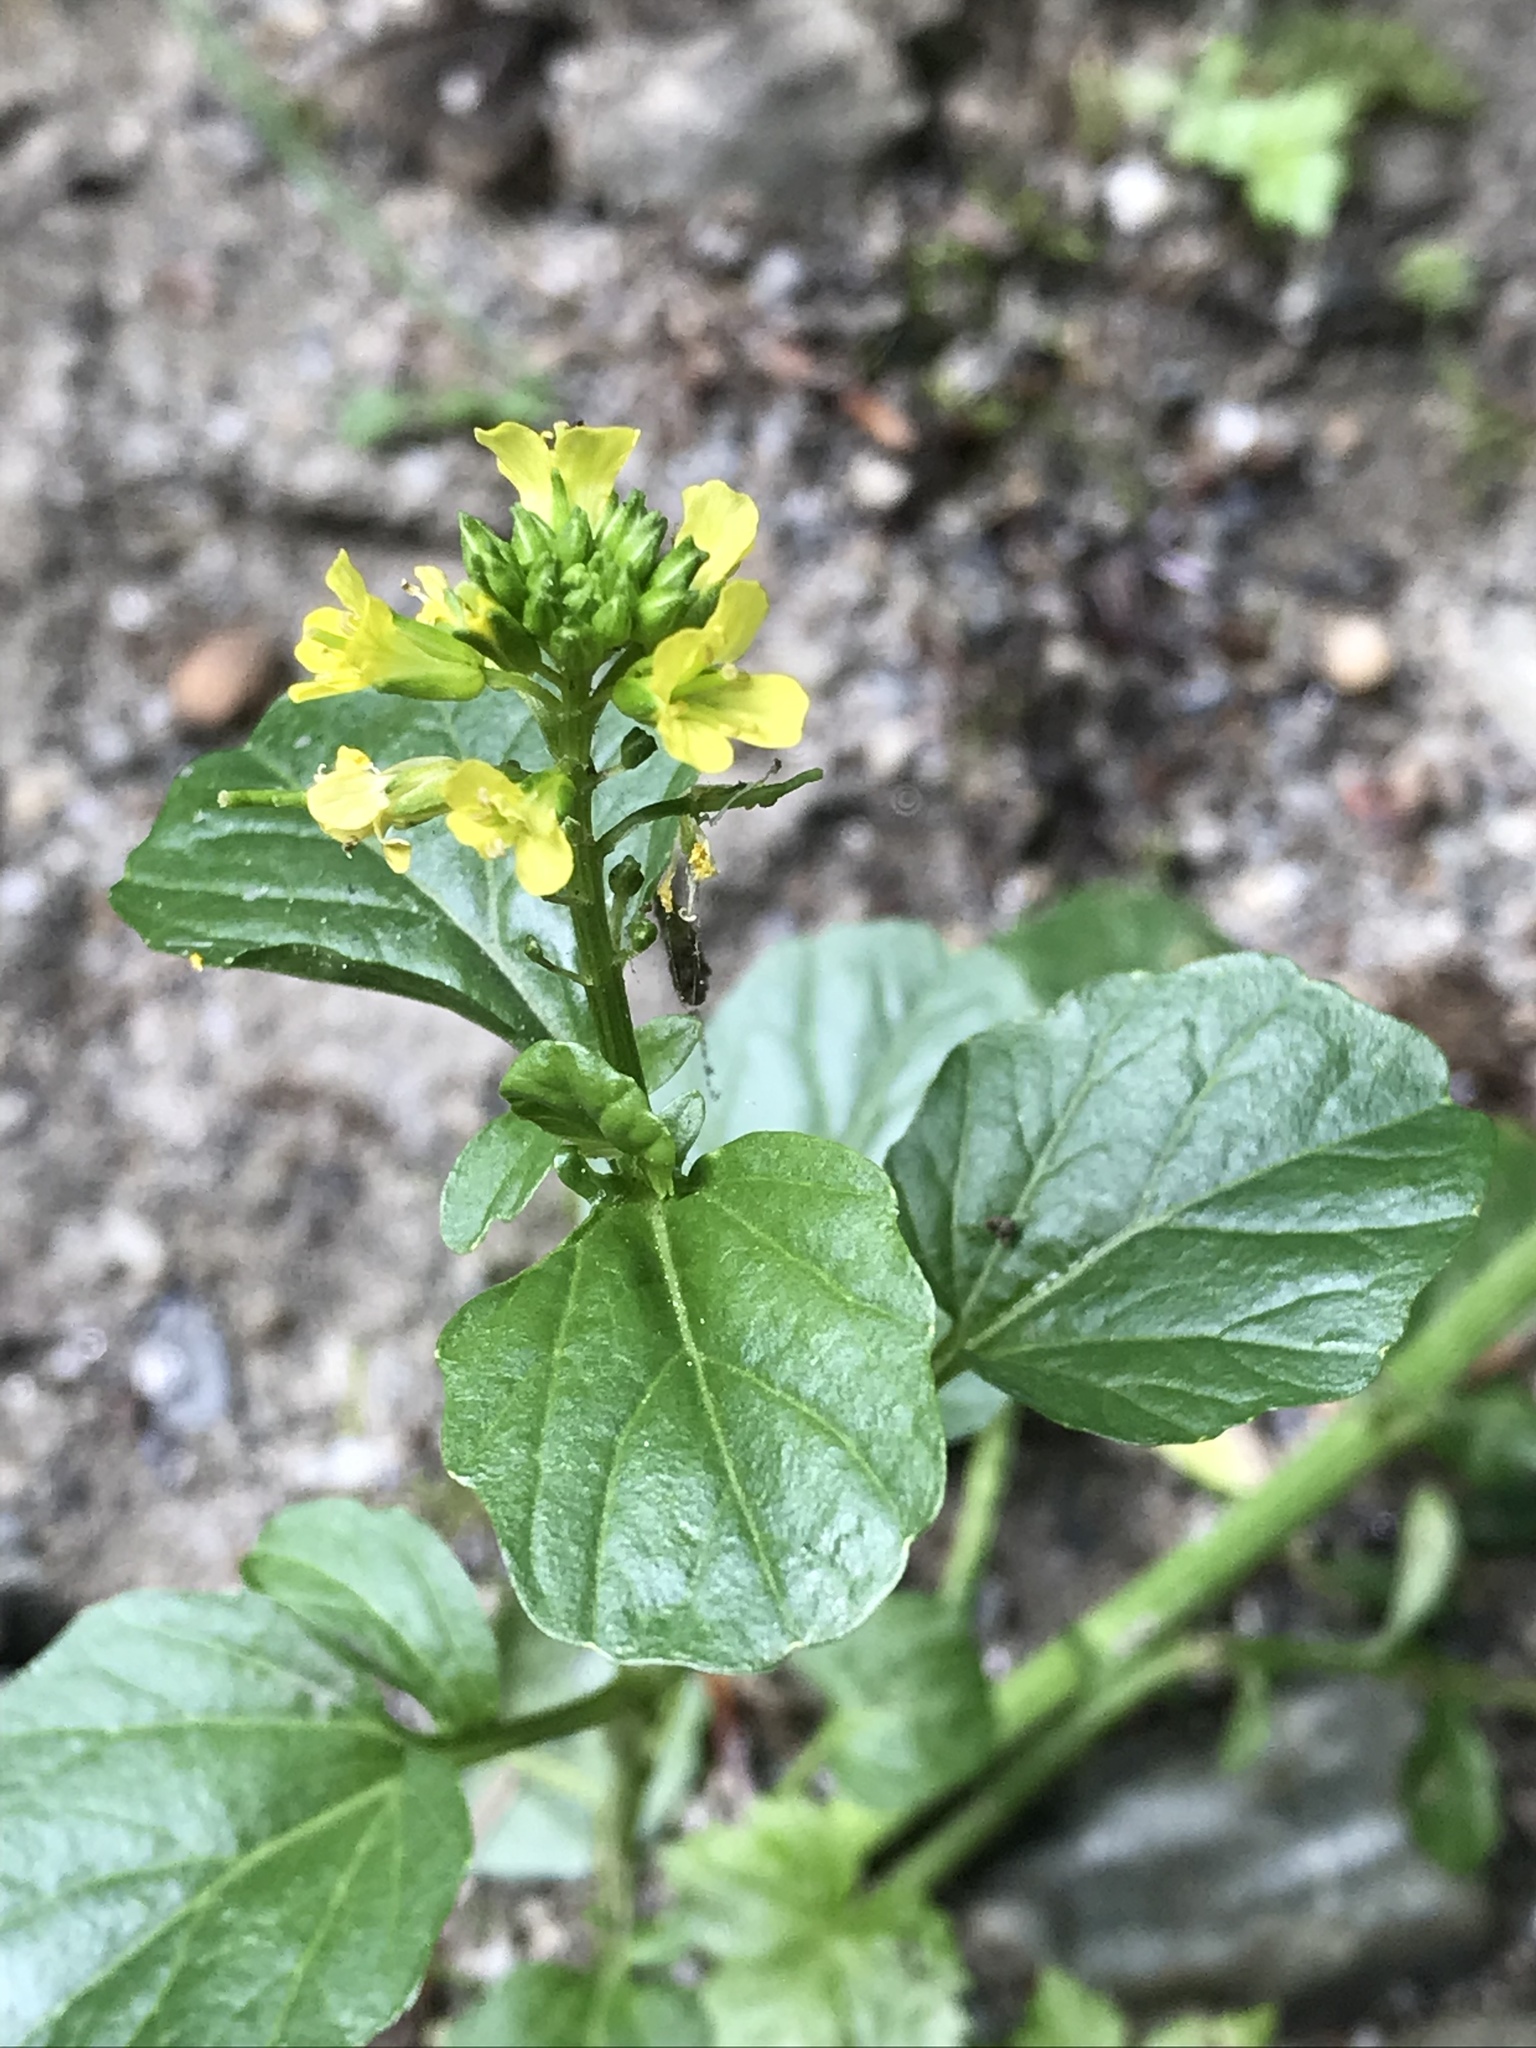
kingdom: Plantae
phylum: Tracheophyta
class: Magnoliopsida
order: Brassicales
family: Brassicaceae
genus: Barbarea
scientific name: Barbarea vulgaris
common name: Cressy-greens
